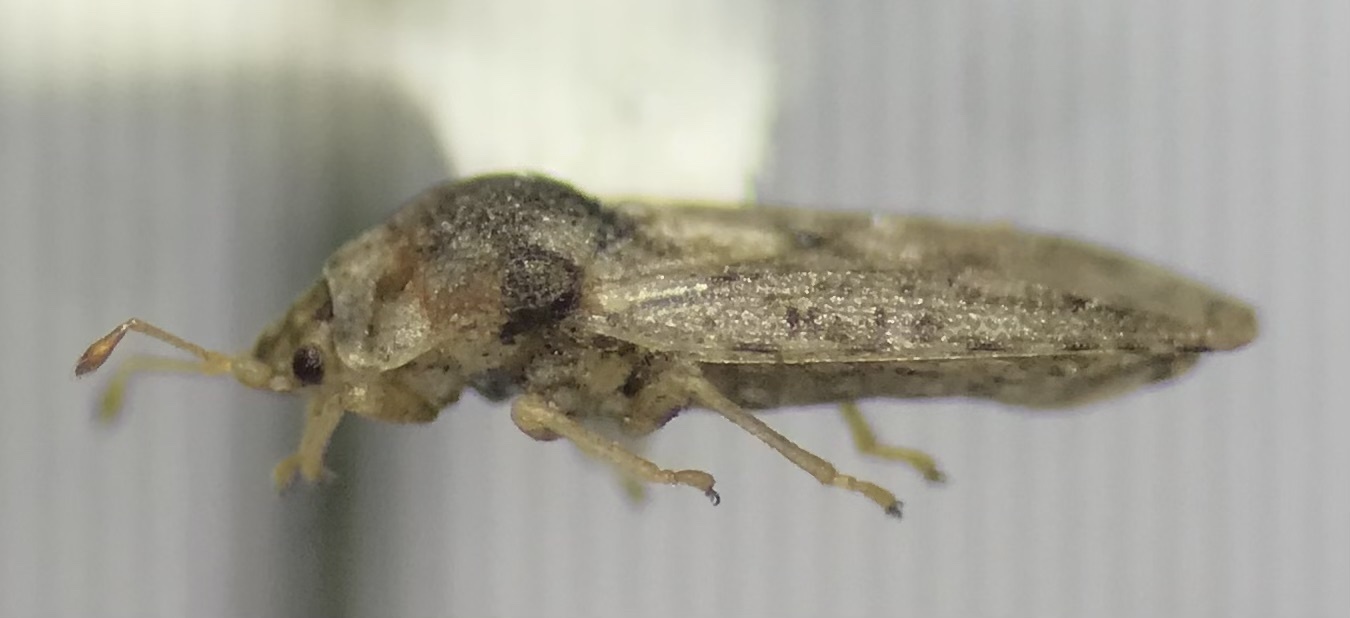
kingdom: Animalia
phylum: Arthropoda
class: Insecta
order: Hemiptera
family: Piesmatidae
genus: Parapiesma
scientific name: Parapiesma cinereum
